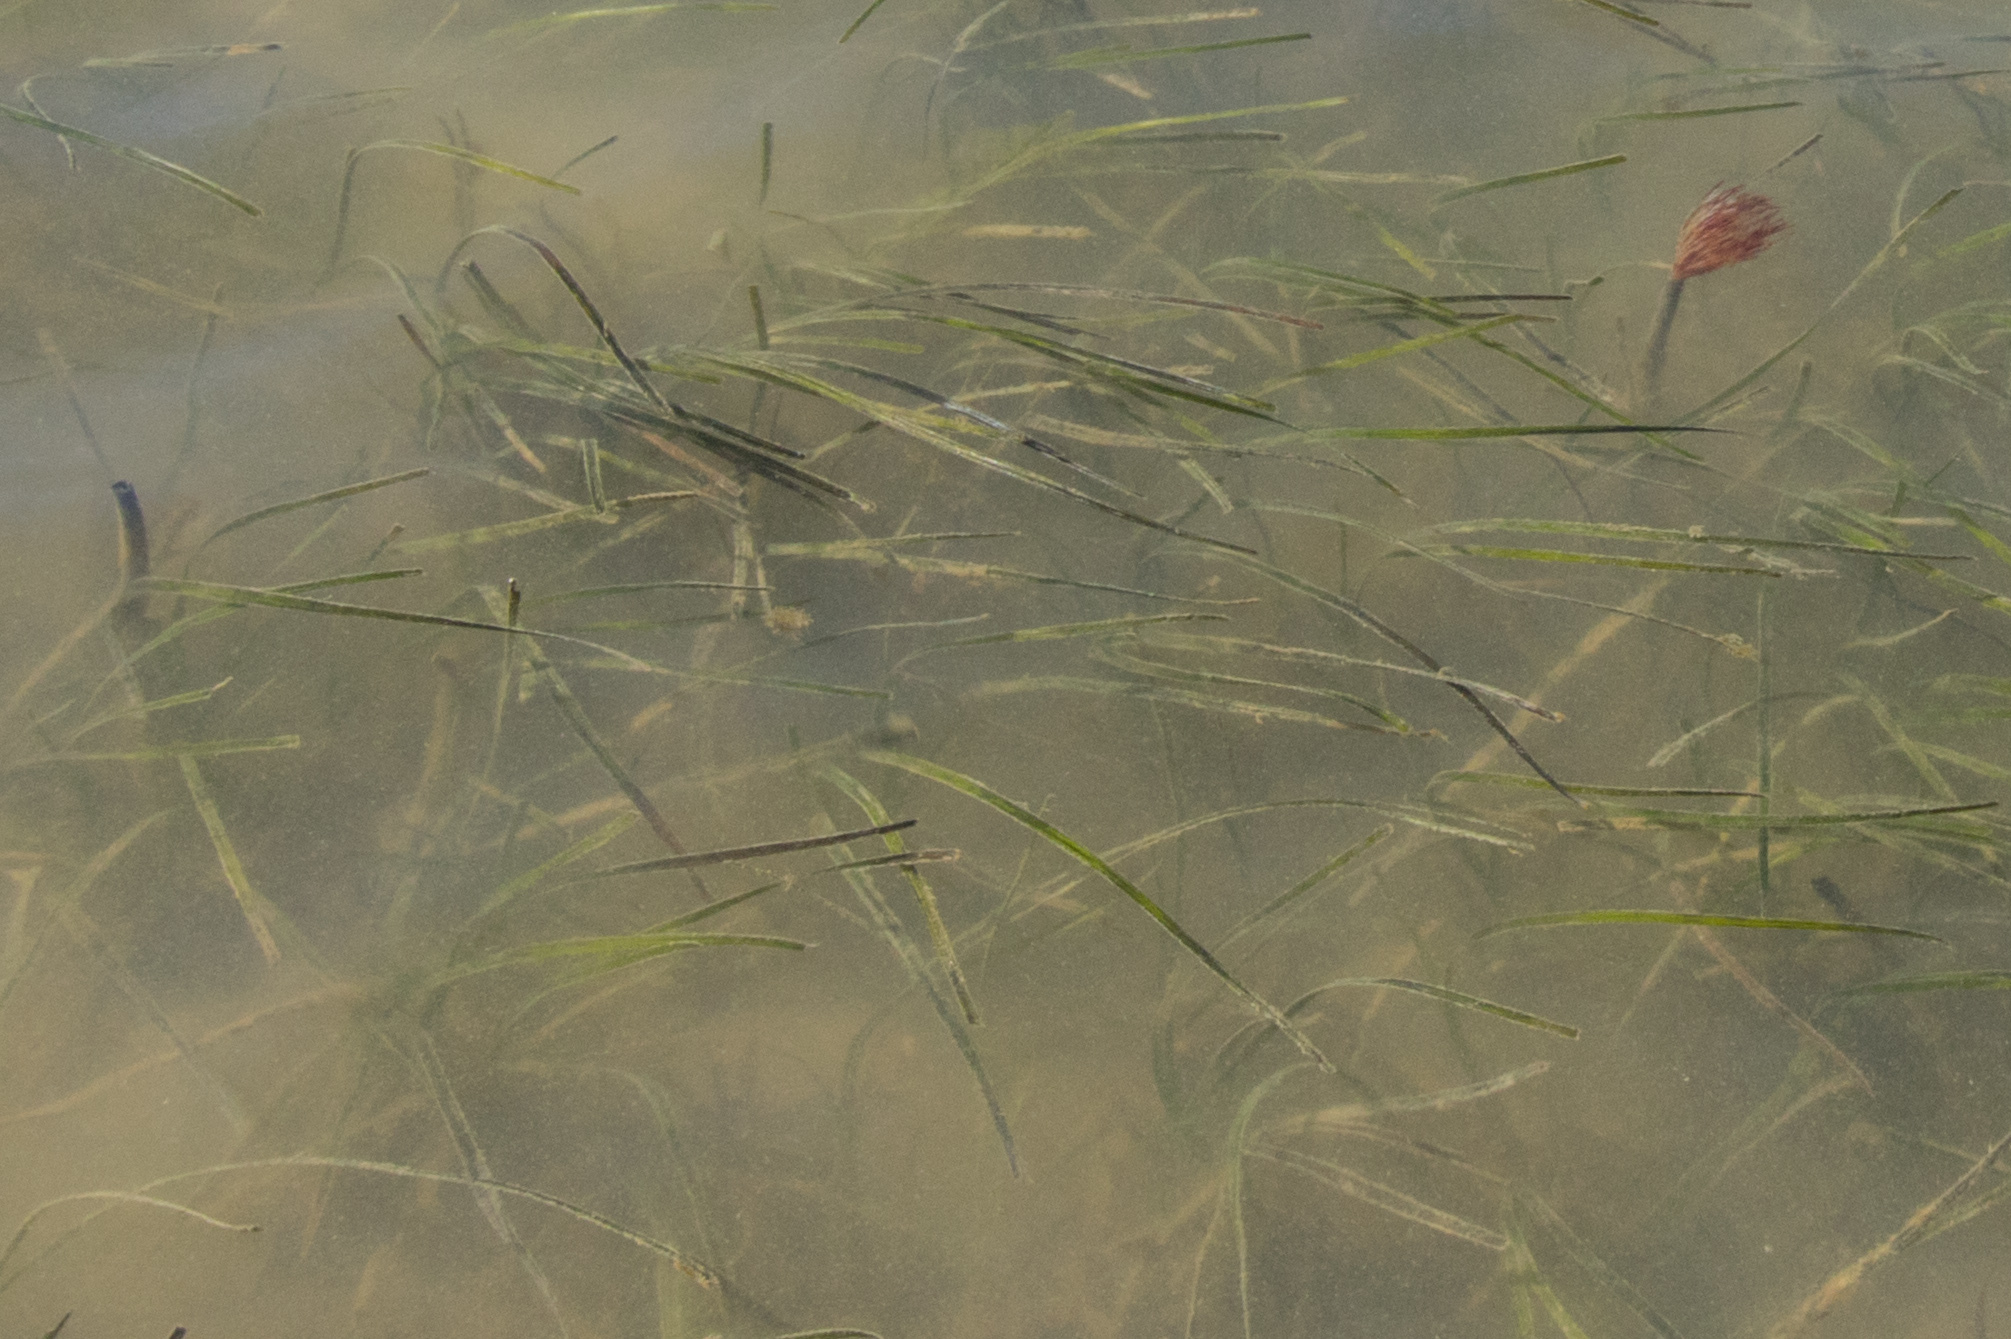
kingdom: Animalia
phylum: Annelida
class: Polychaeta
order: Sabellida
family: Sabellidae
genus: Sabella
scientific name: Sabella spallanzanii
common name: Feather duster worm
